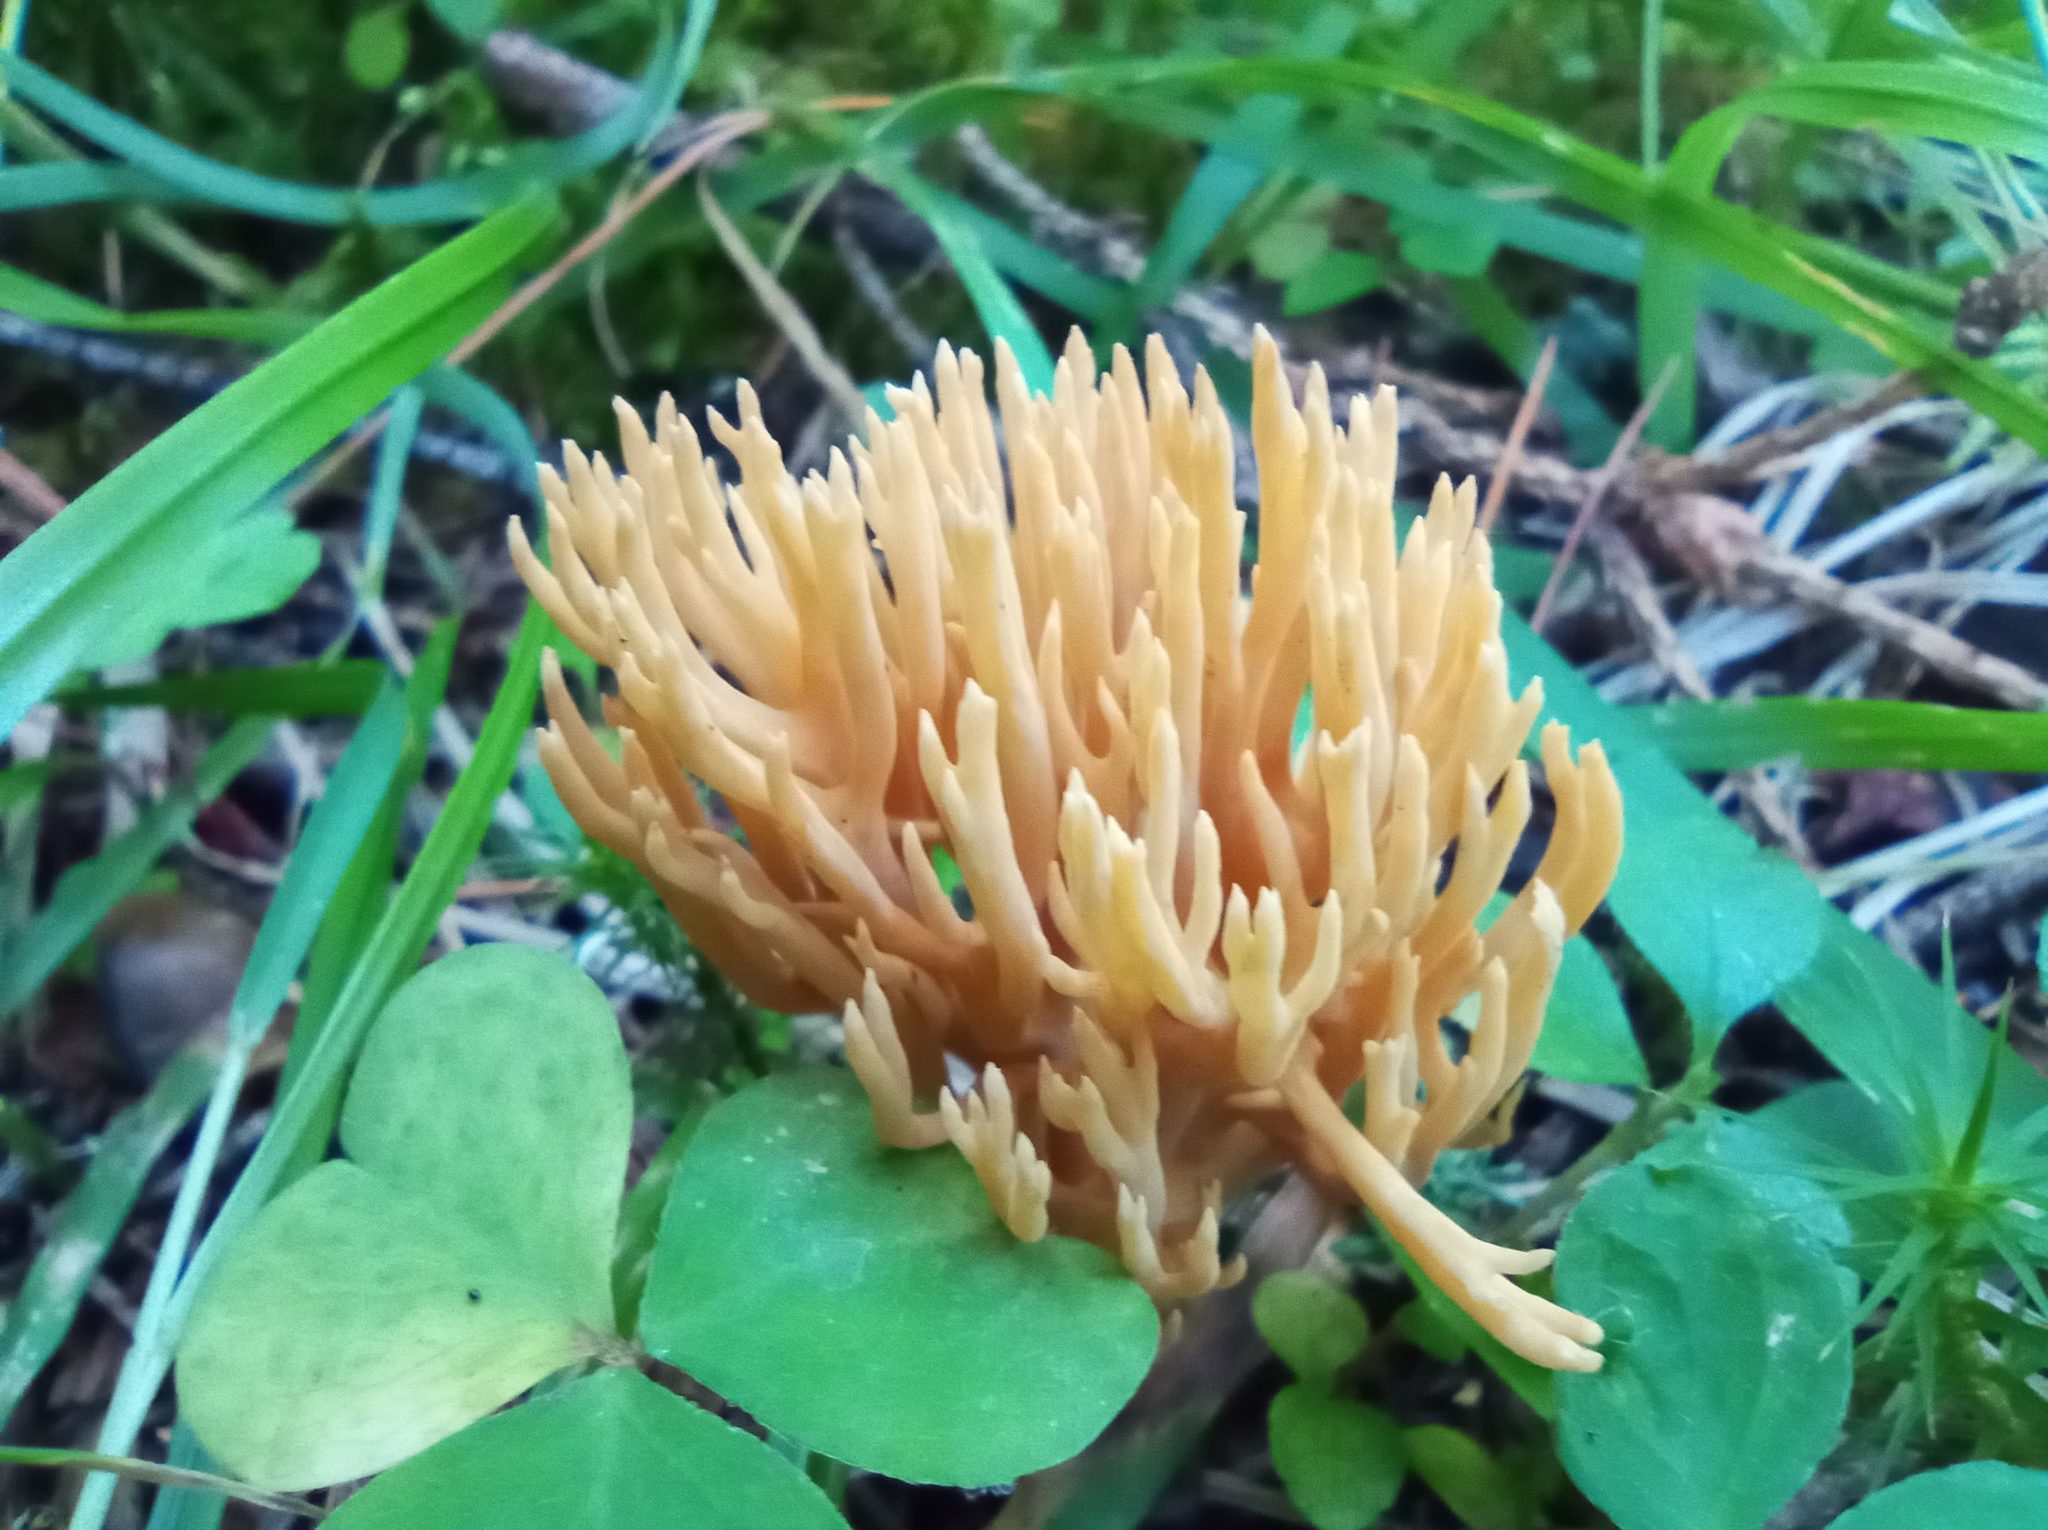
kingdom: Fungi
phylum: Basidiomycota
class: Agaricomycetes
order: Gomphales
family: Gomphaceae
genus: Ramaria
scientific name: Ramaria tsugina
